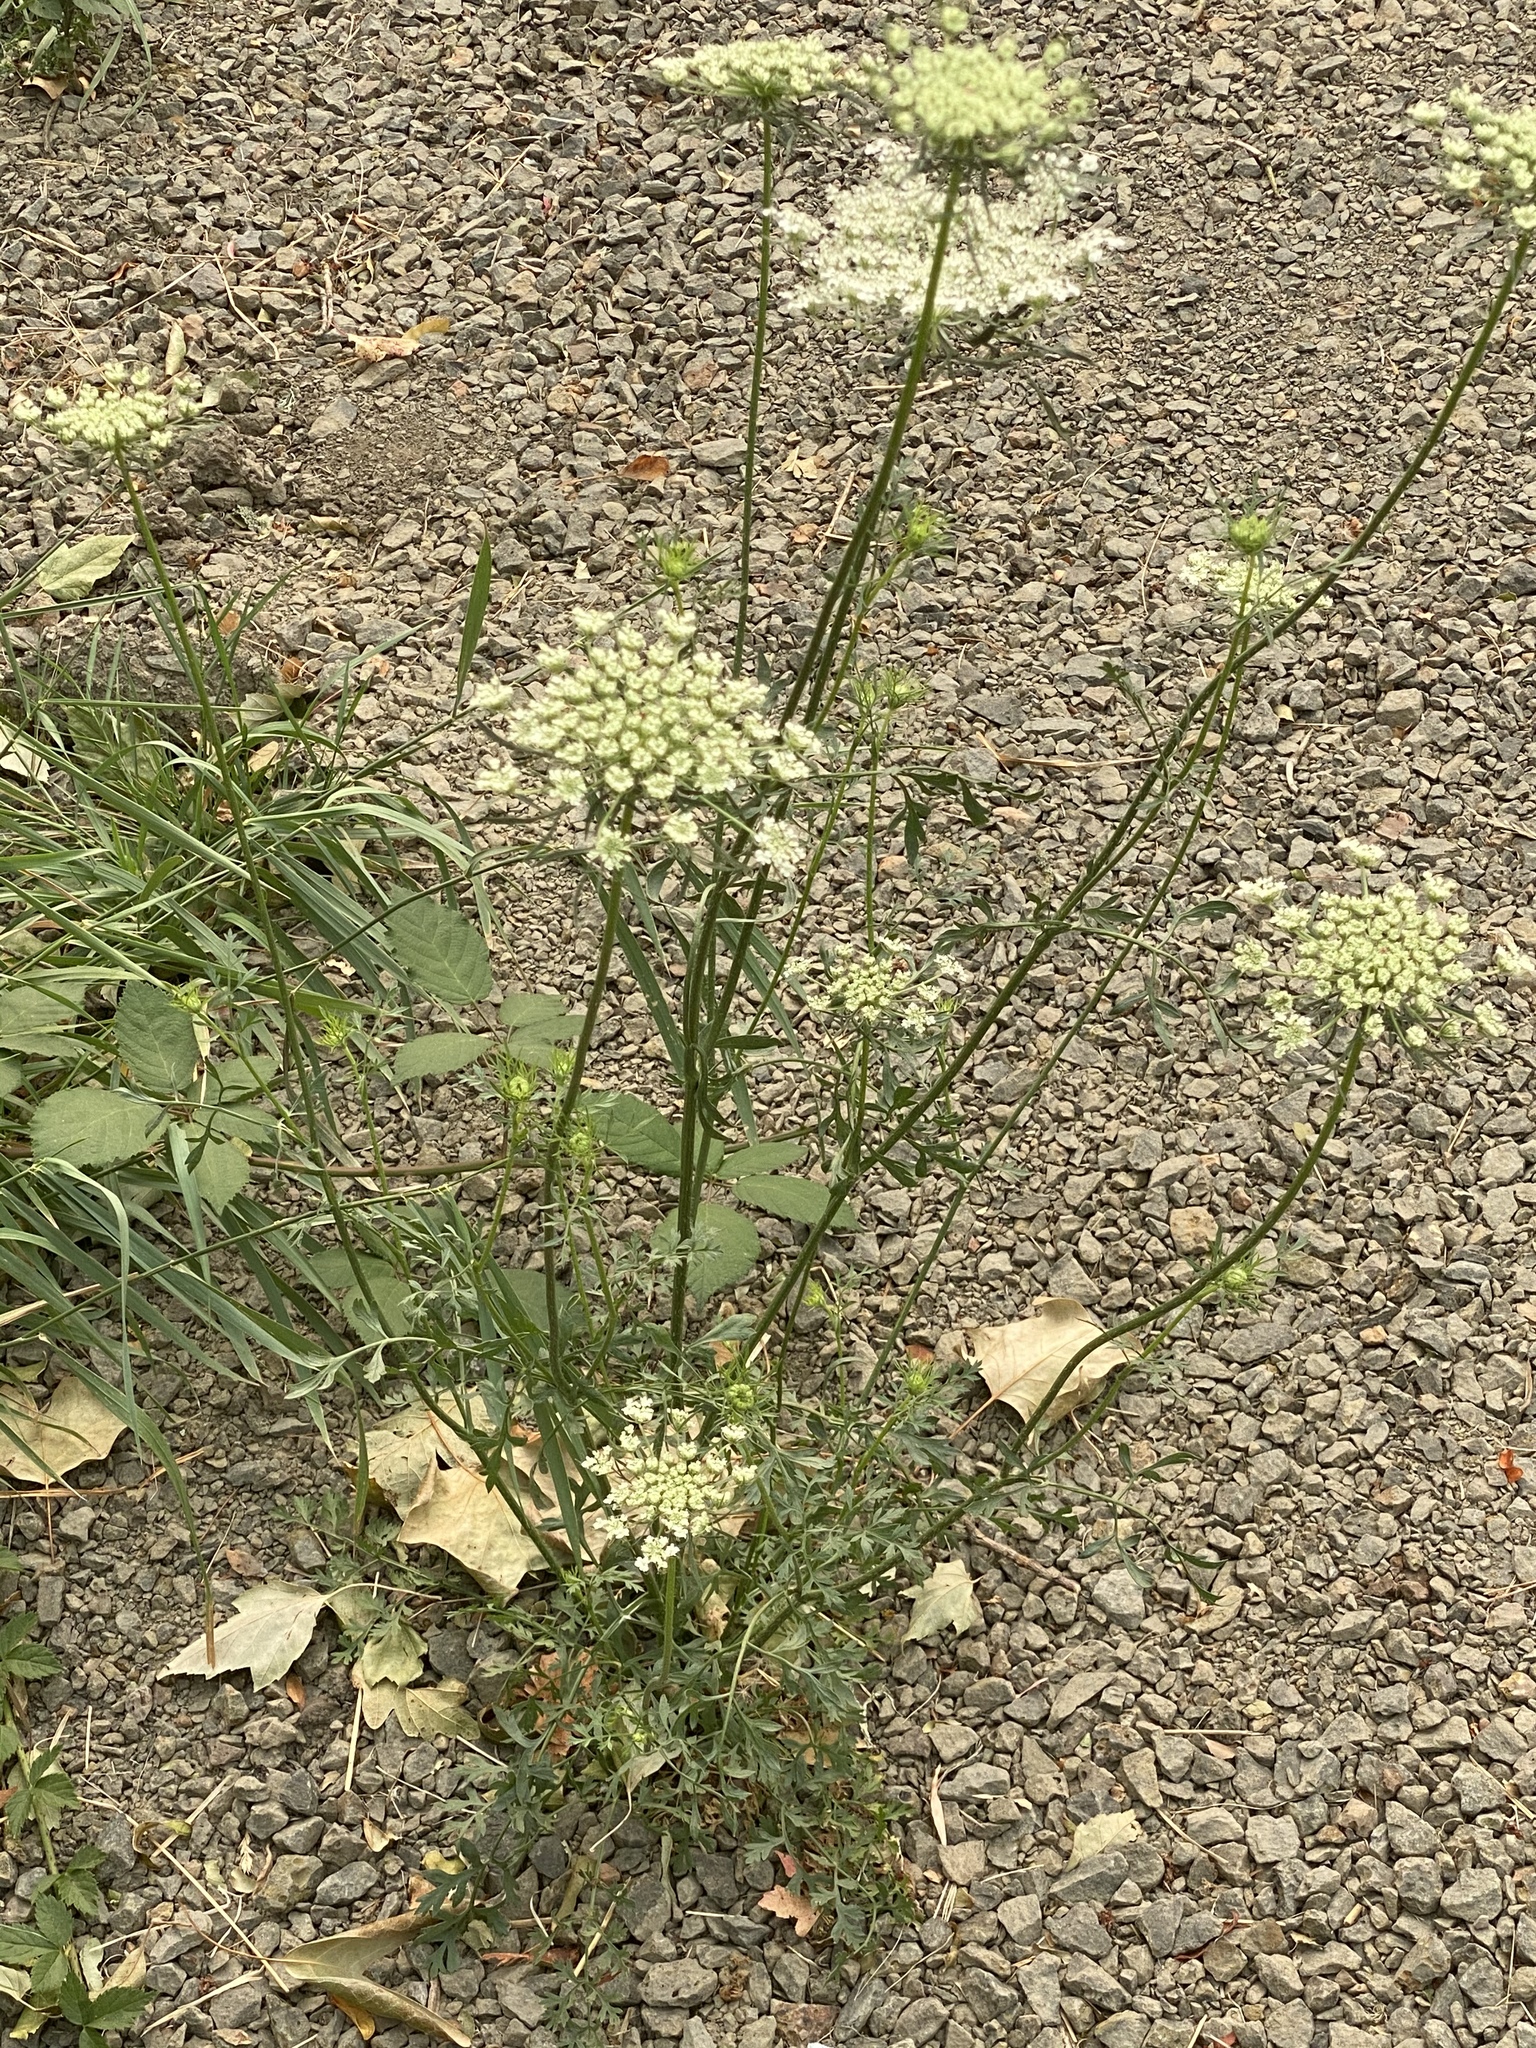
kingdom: Plantae
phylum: Tracheophyta
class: Magnoliopsida
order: Apiales
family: Apiaceae
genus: Daucus
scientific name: Daucus carota
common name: Wild carrot
